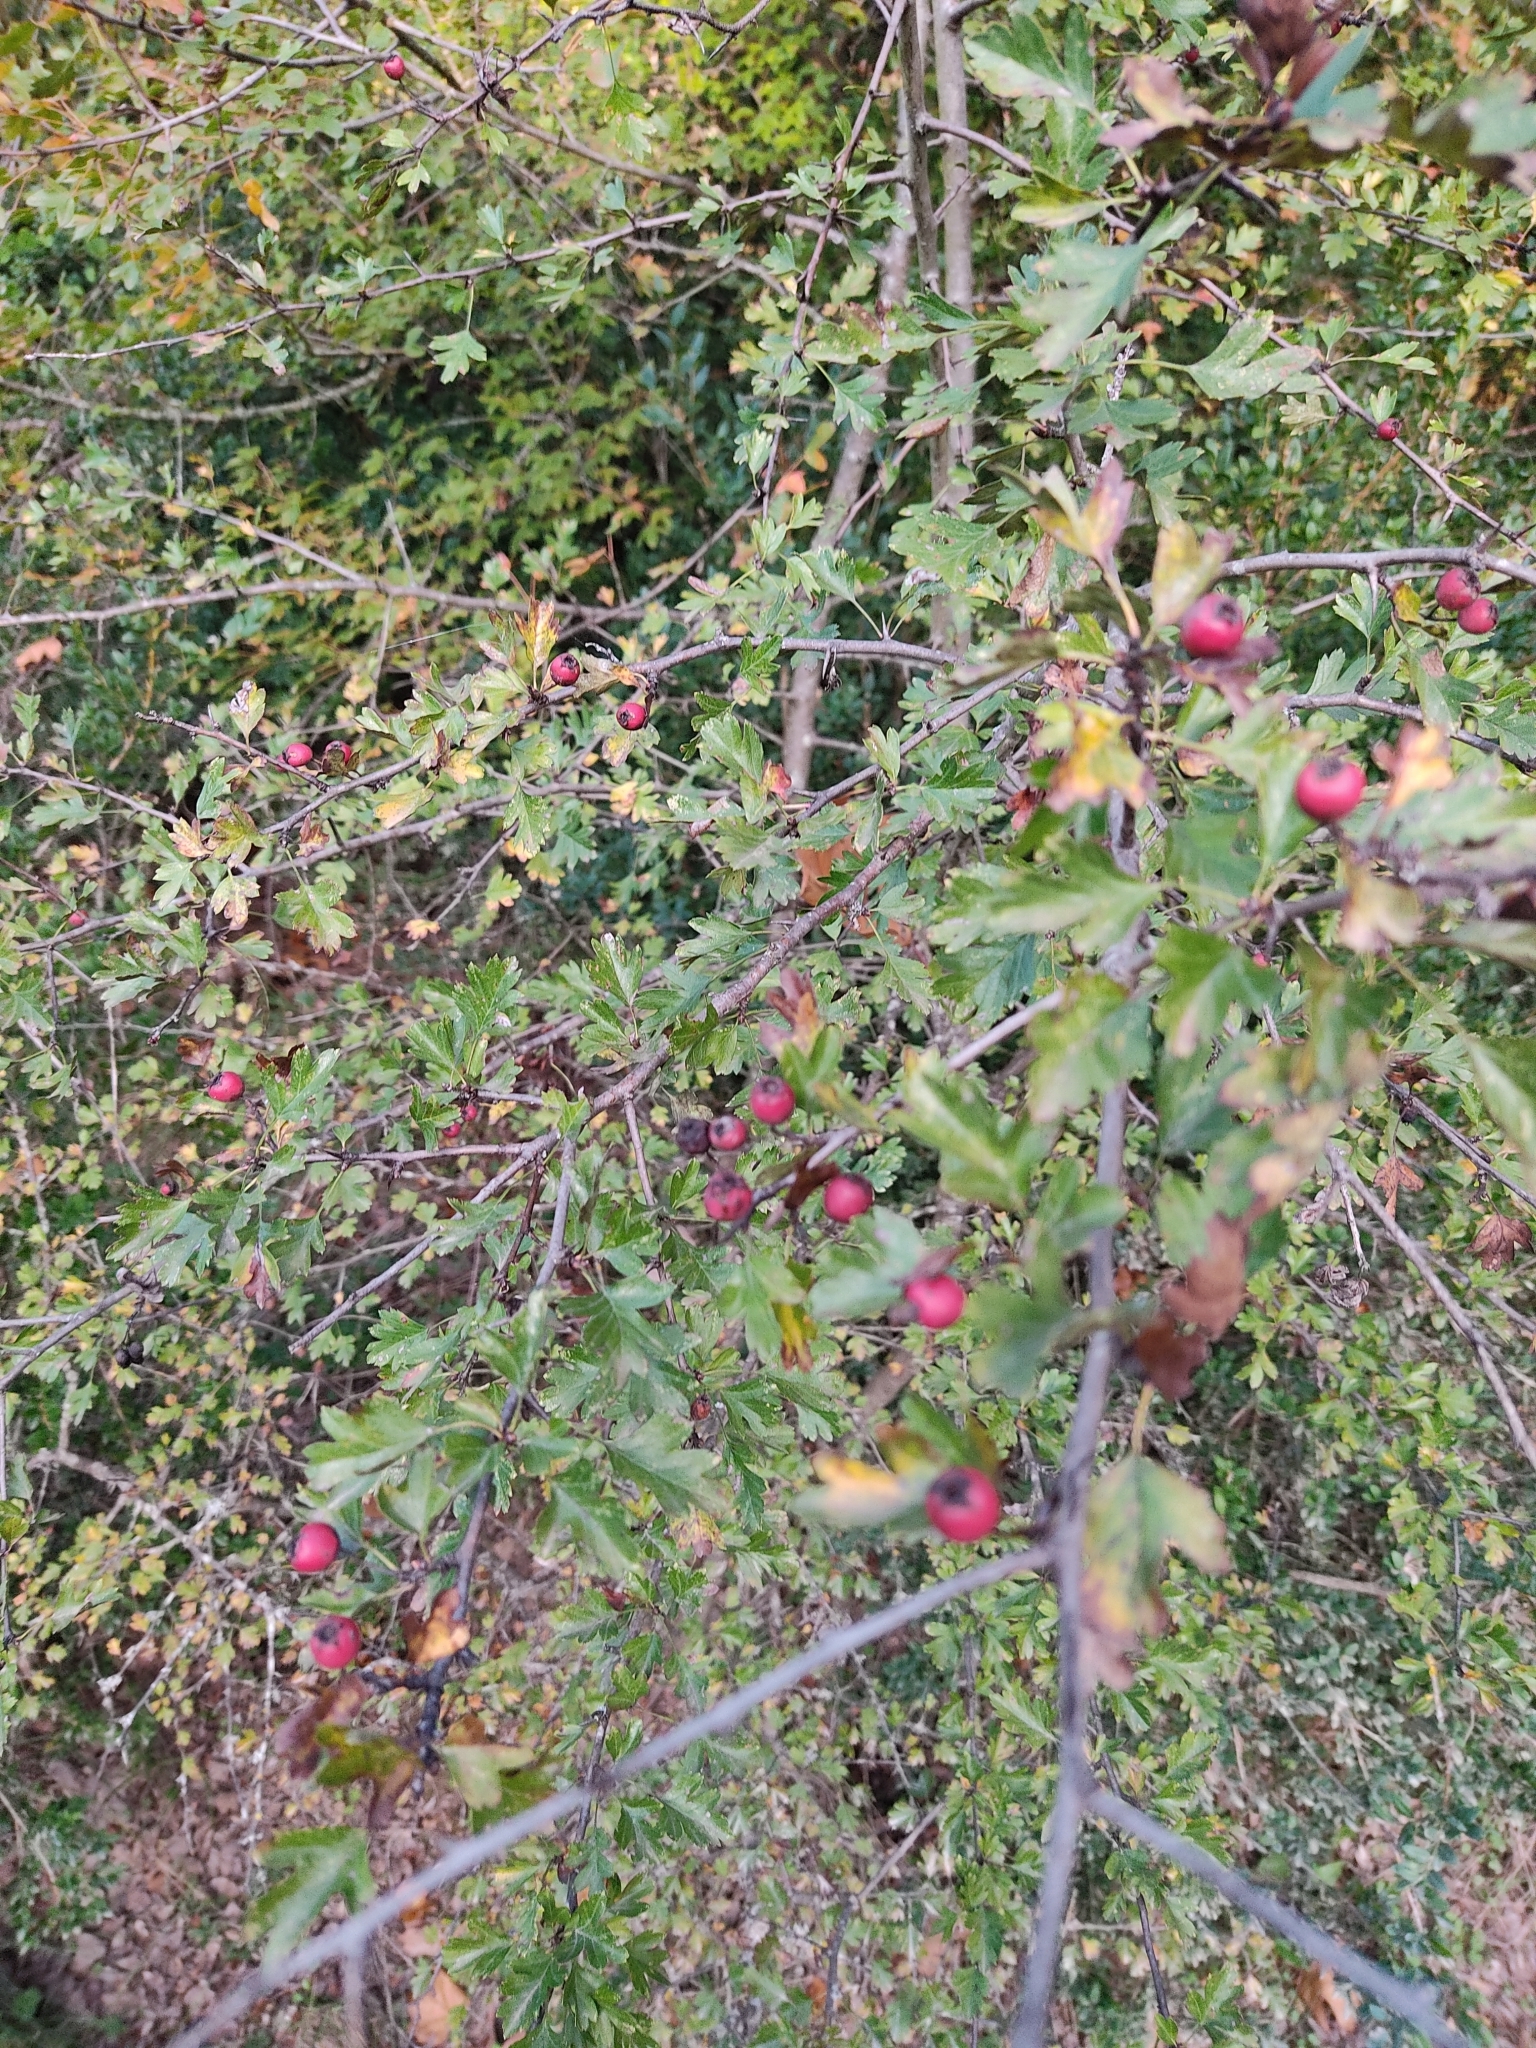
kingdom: Plantae
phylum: Tracheophyta
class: Magnoliopsida
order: Rosales
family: Rosaceae
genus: Crataegus
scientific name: Crataegus monogyna
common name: Hawthorn
